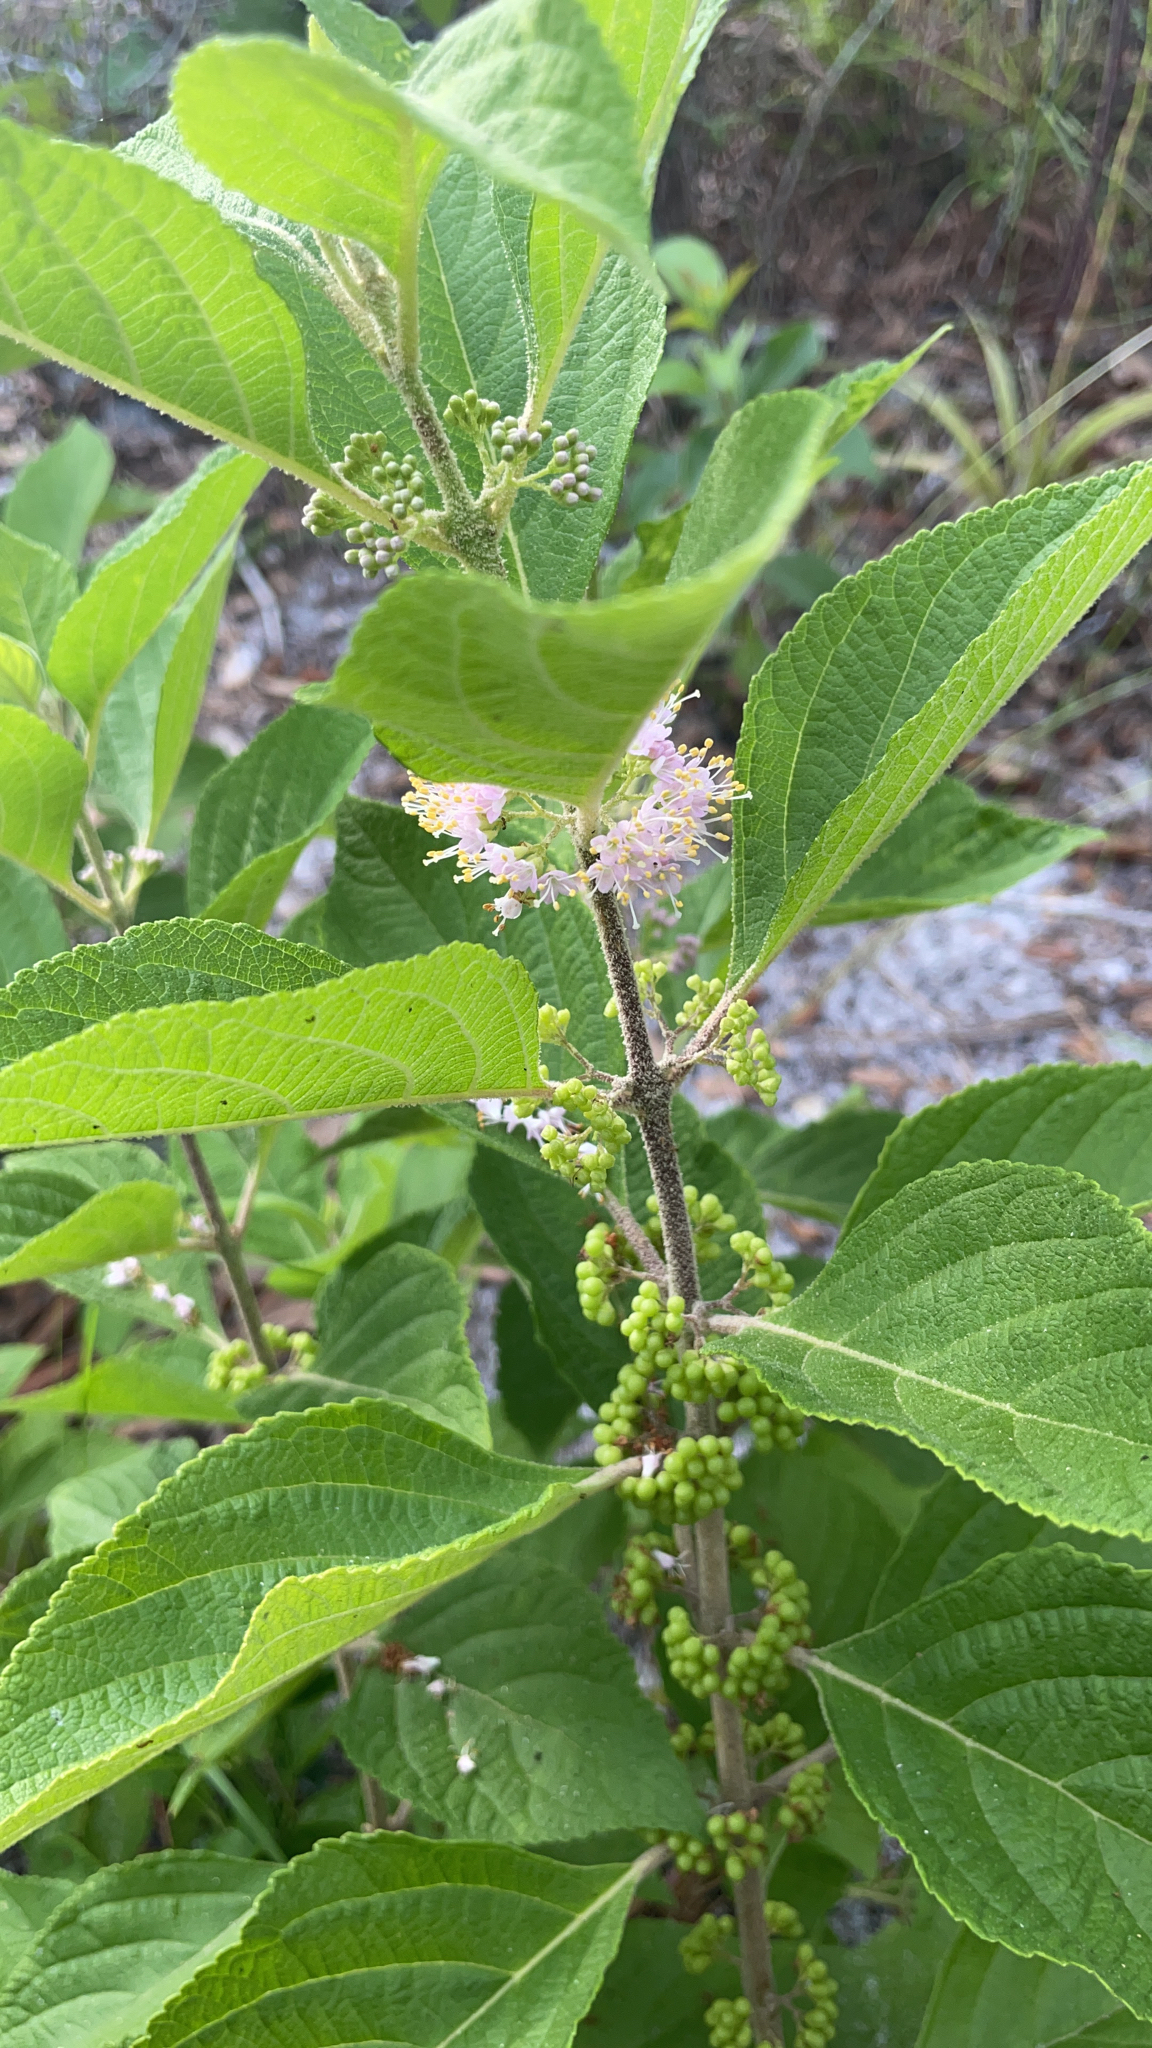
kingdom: Plantae
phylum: Tracheophyta
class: Magnoliopsida
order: Lamiales
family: Lamiaceae
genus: Callicarpa
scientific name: Callicarpa americana
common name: American beautyberry
